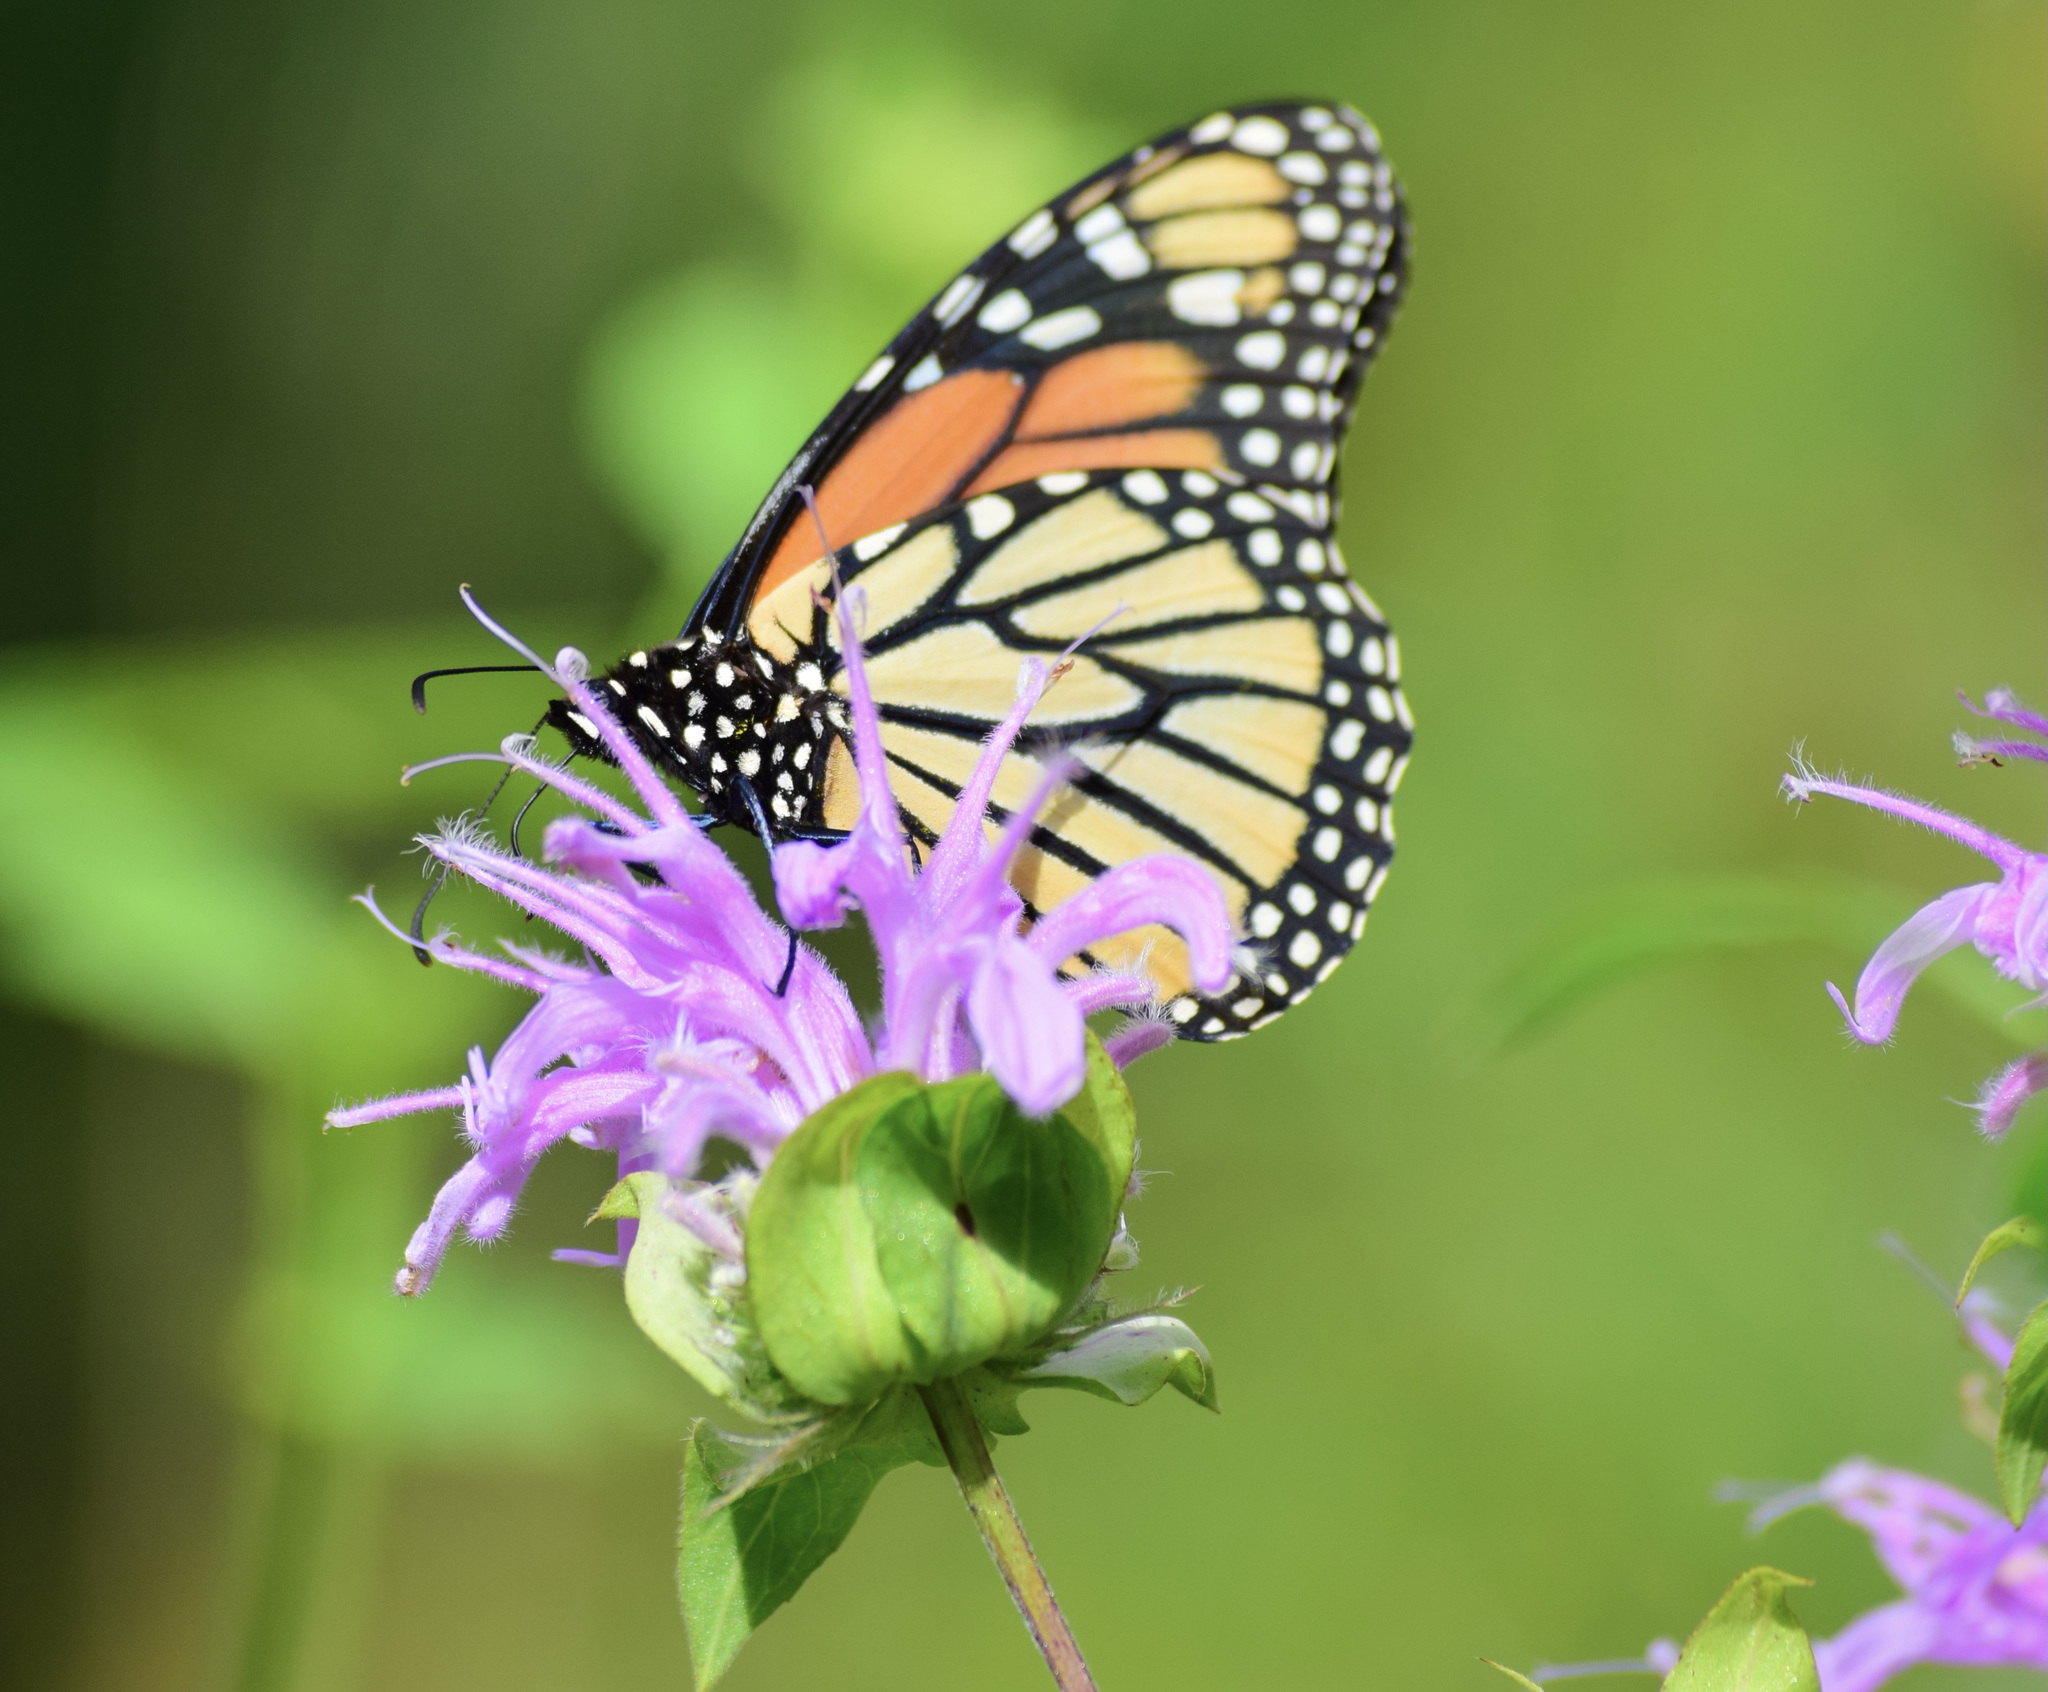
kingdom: Animalia
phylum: Arthropoda
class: Insecta
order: Lepidoptera
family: Nymphalidae
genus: Danaus
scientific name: Danaus plexippus
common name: Monarch
